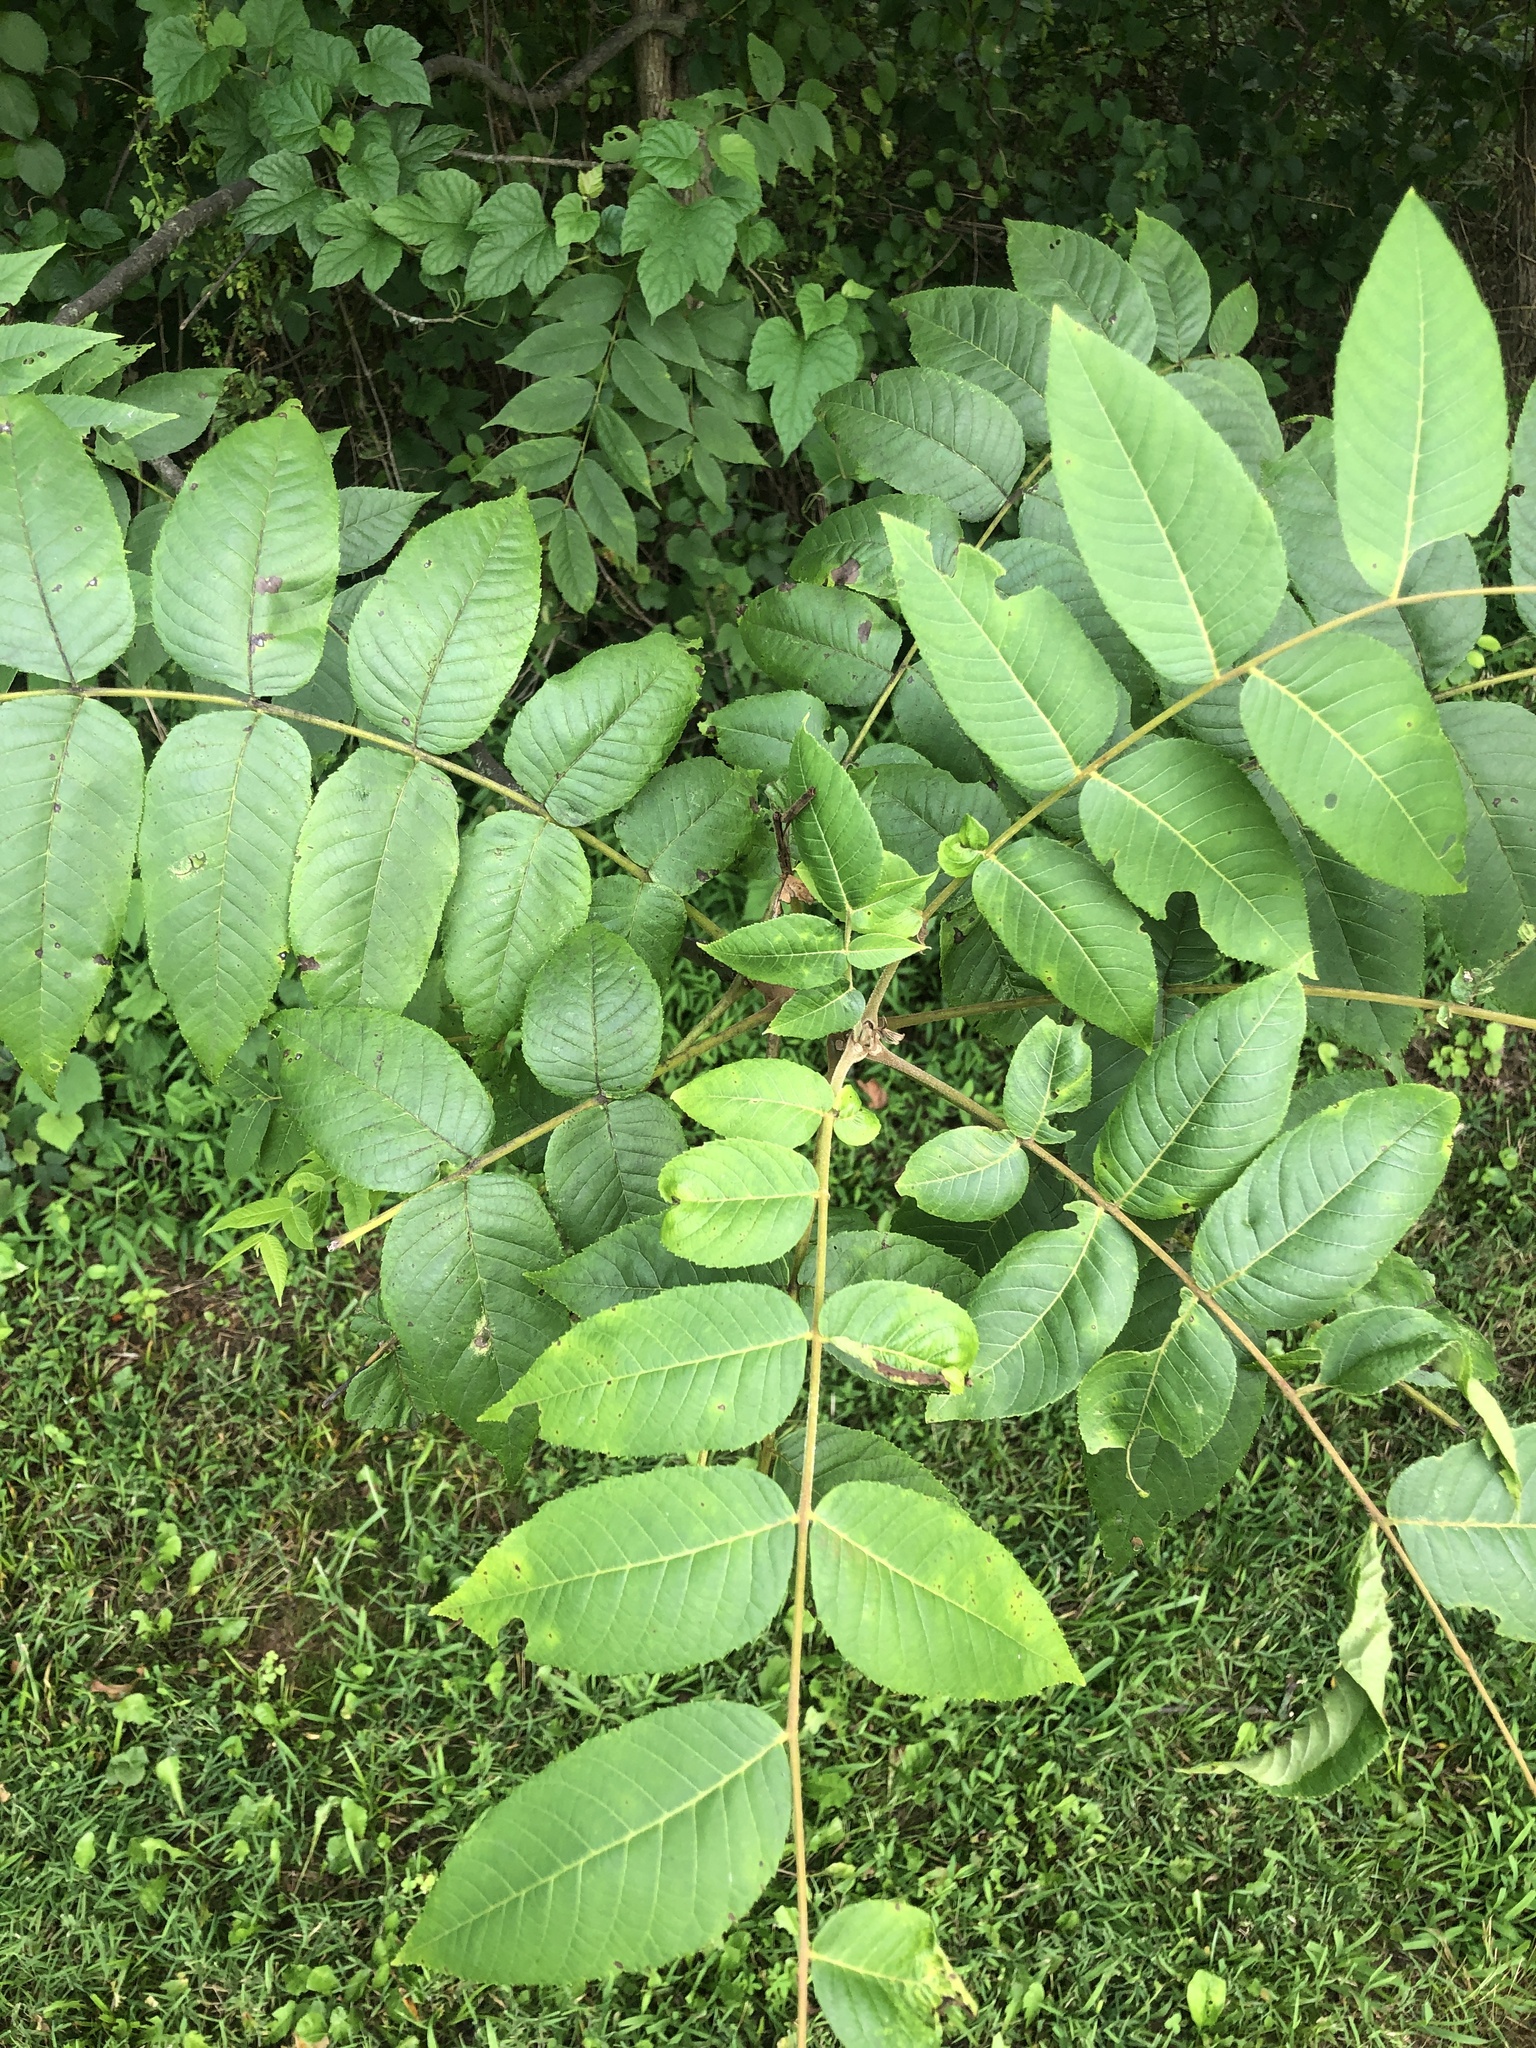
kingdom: Plantae
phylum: Tracheophyta
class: Magnoliopsida
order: Fagales
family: Juglandaceae
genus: Juglans
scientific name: Juglans nigra
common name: Black walnut
